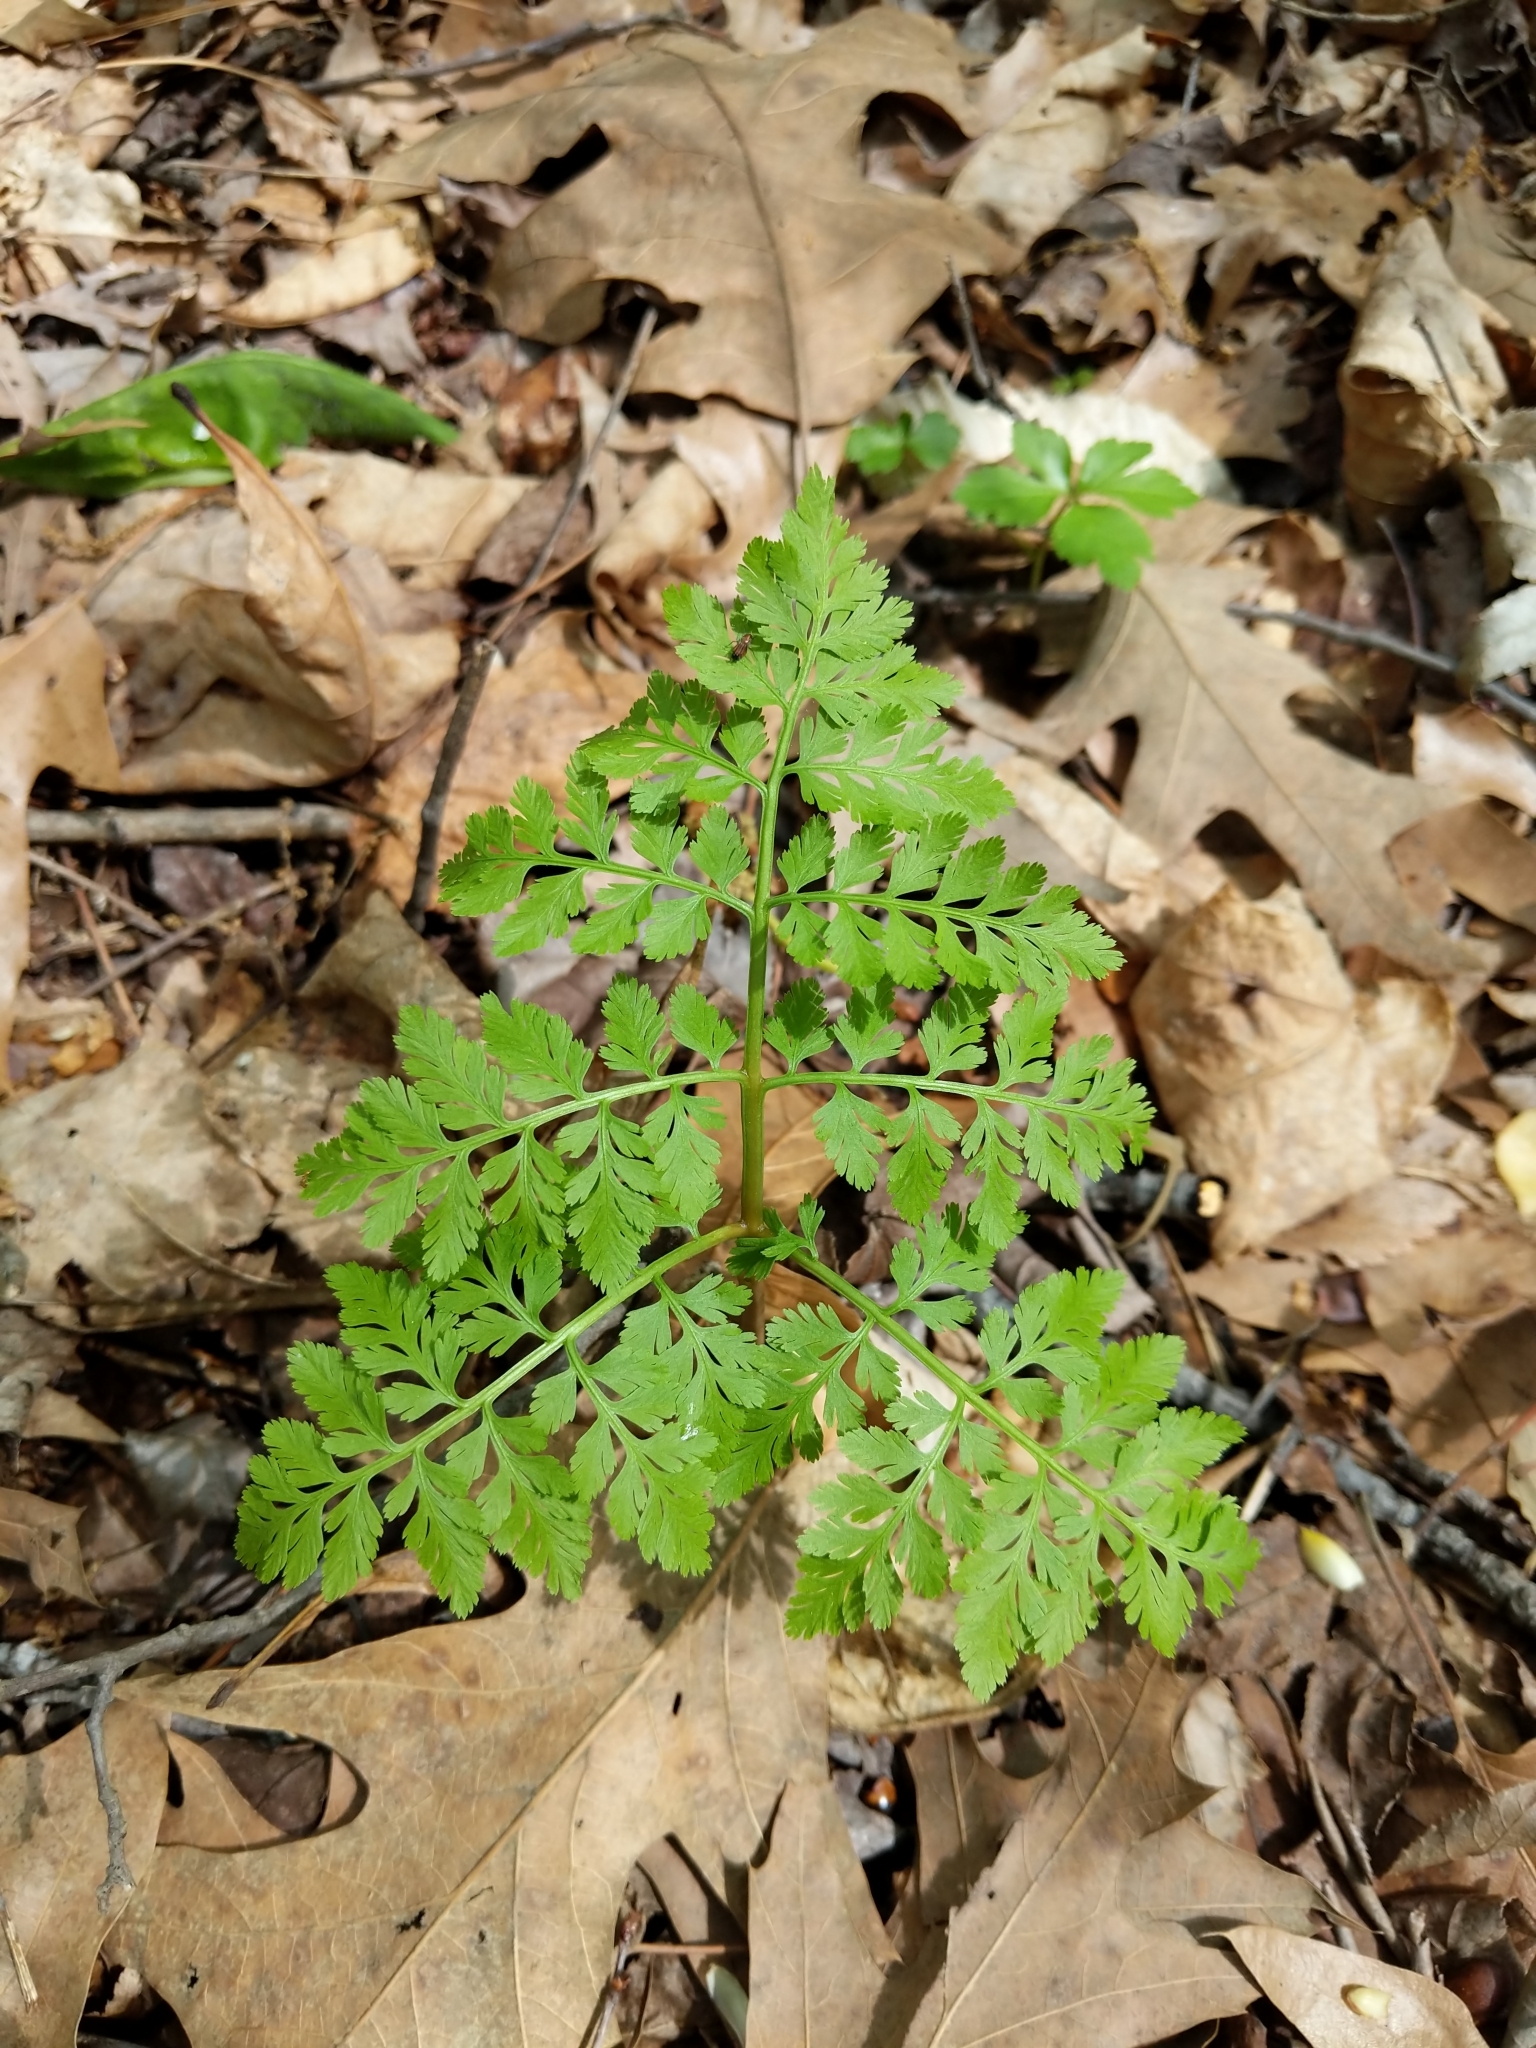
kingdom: Plantae
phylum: Tracheophyta
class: Polypodiopsida
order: Ophioglossales
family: Ophioglossaceae
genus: Botrypus
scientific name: Botrypus virginianus
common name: Common grapefern
